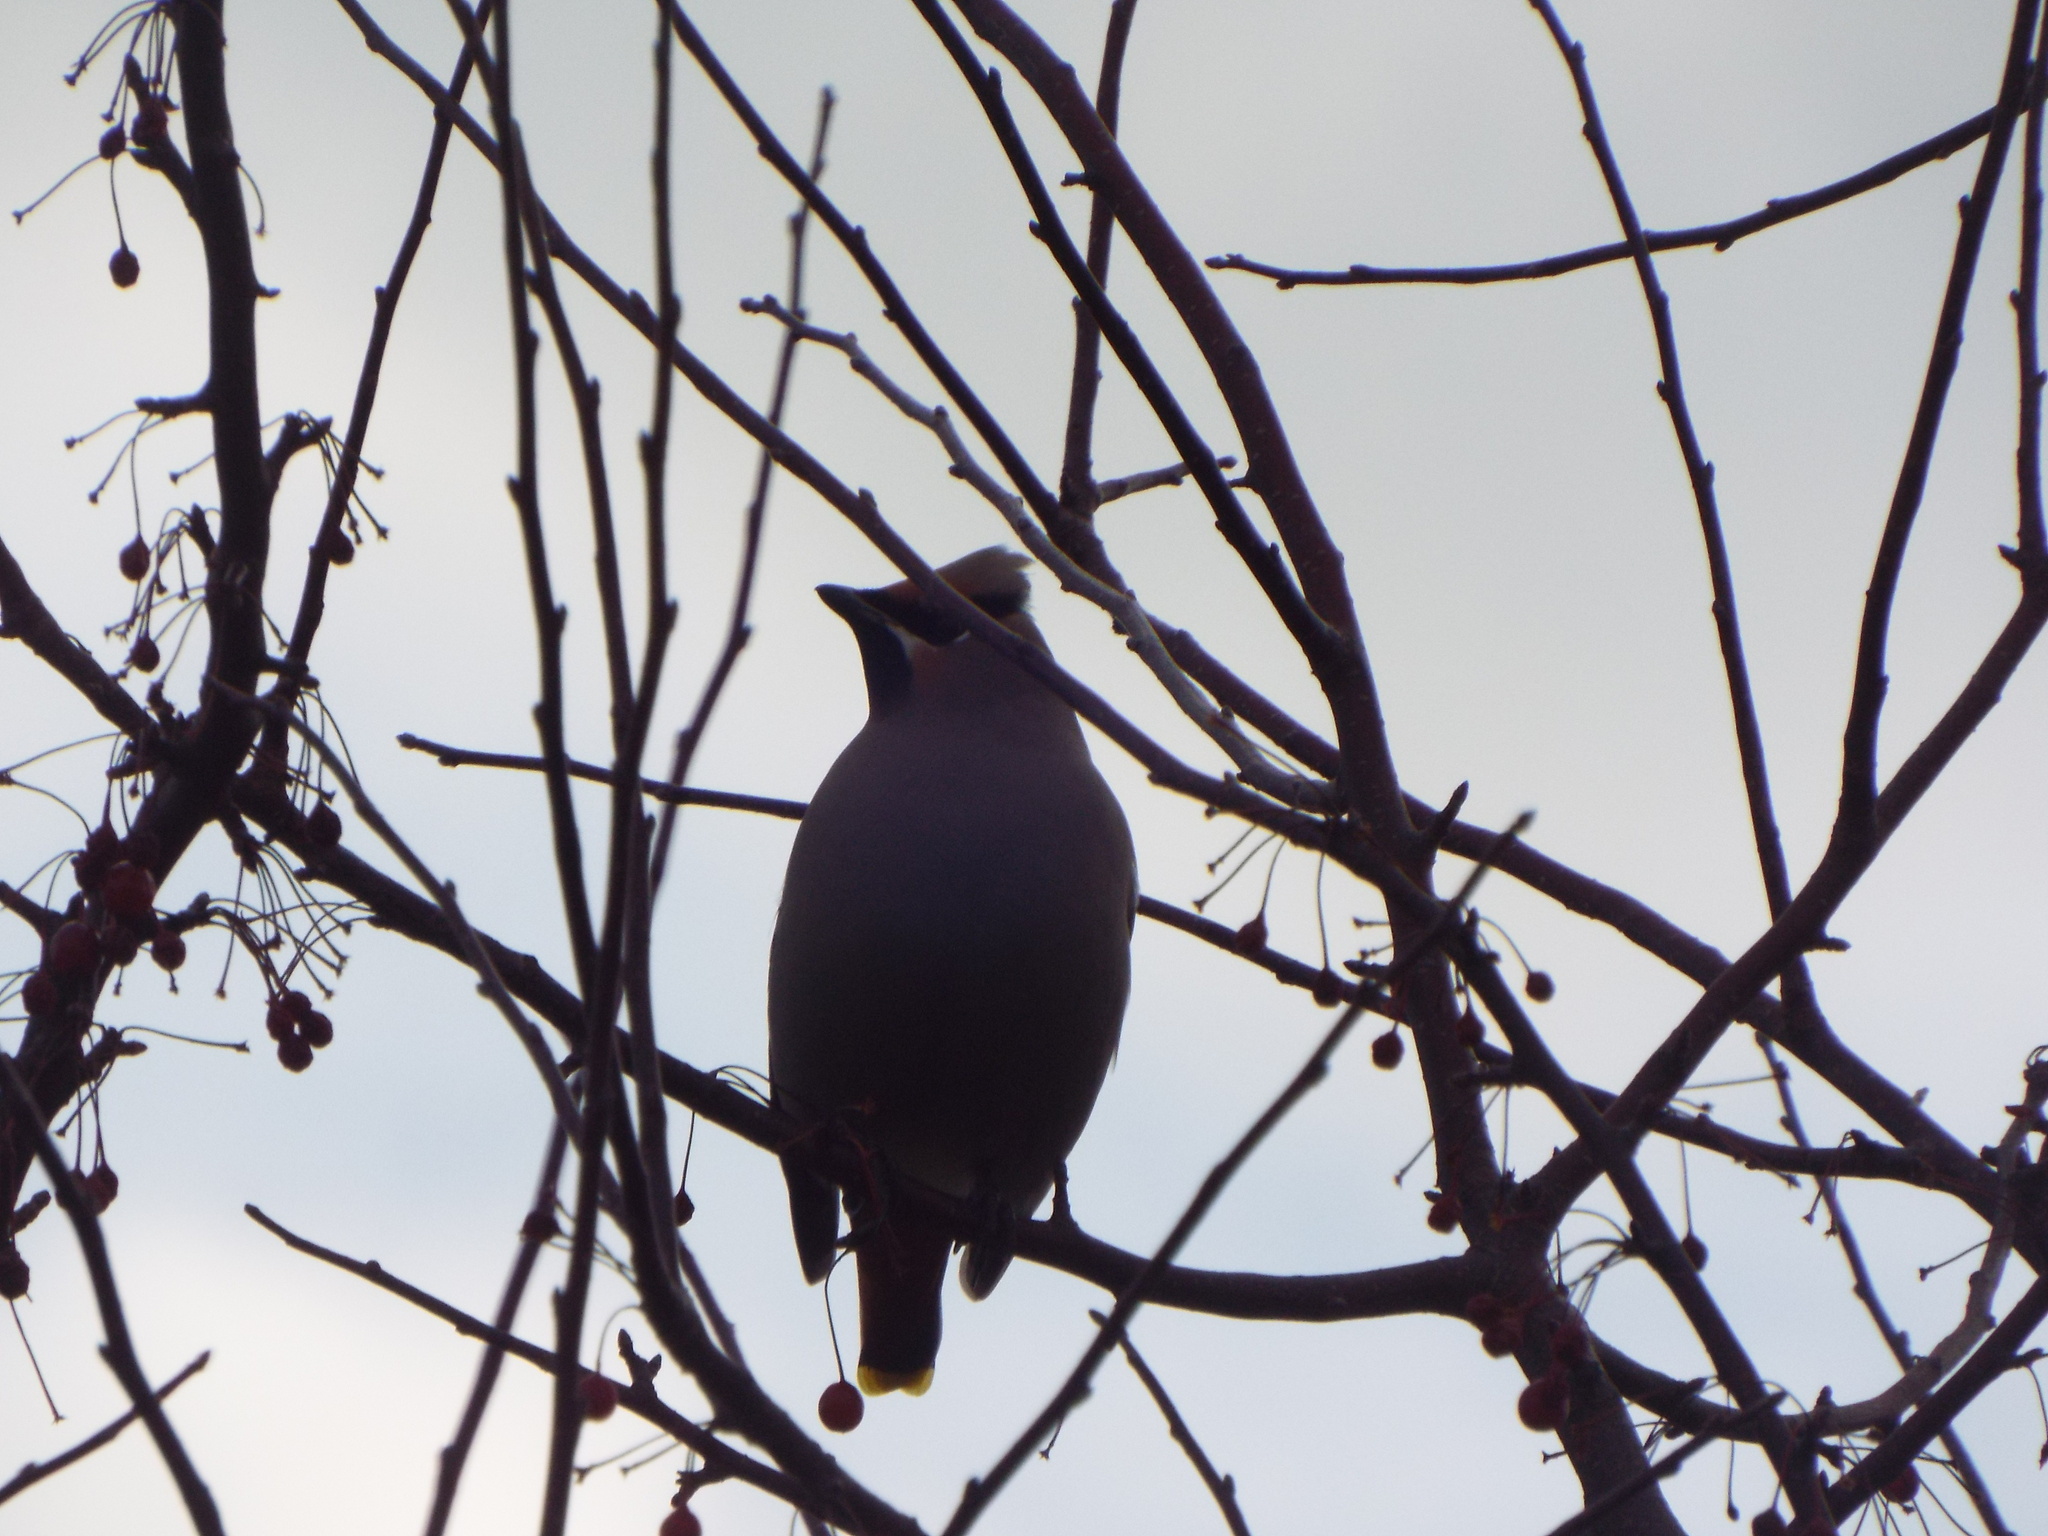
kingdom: Animalia
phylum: Chordata
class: Aves
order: Passeriformes
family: Bombycillidae
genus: Bombycilla
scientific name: Bombycilla garrulus
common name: Bohemian waxwing
